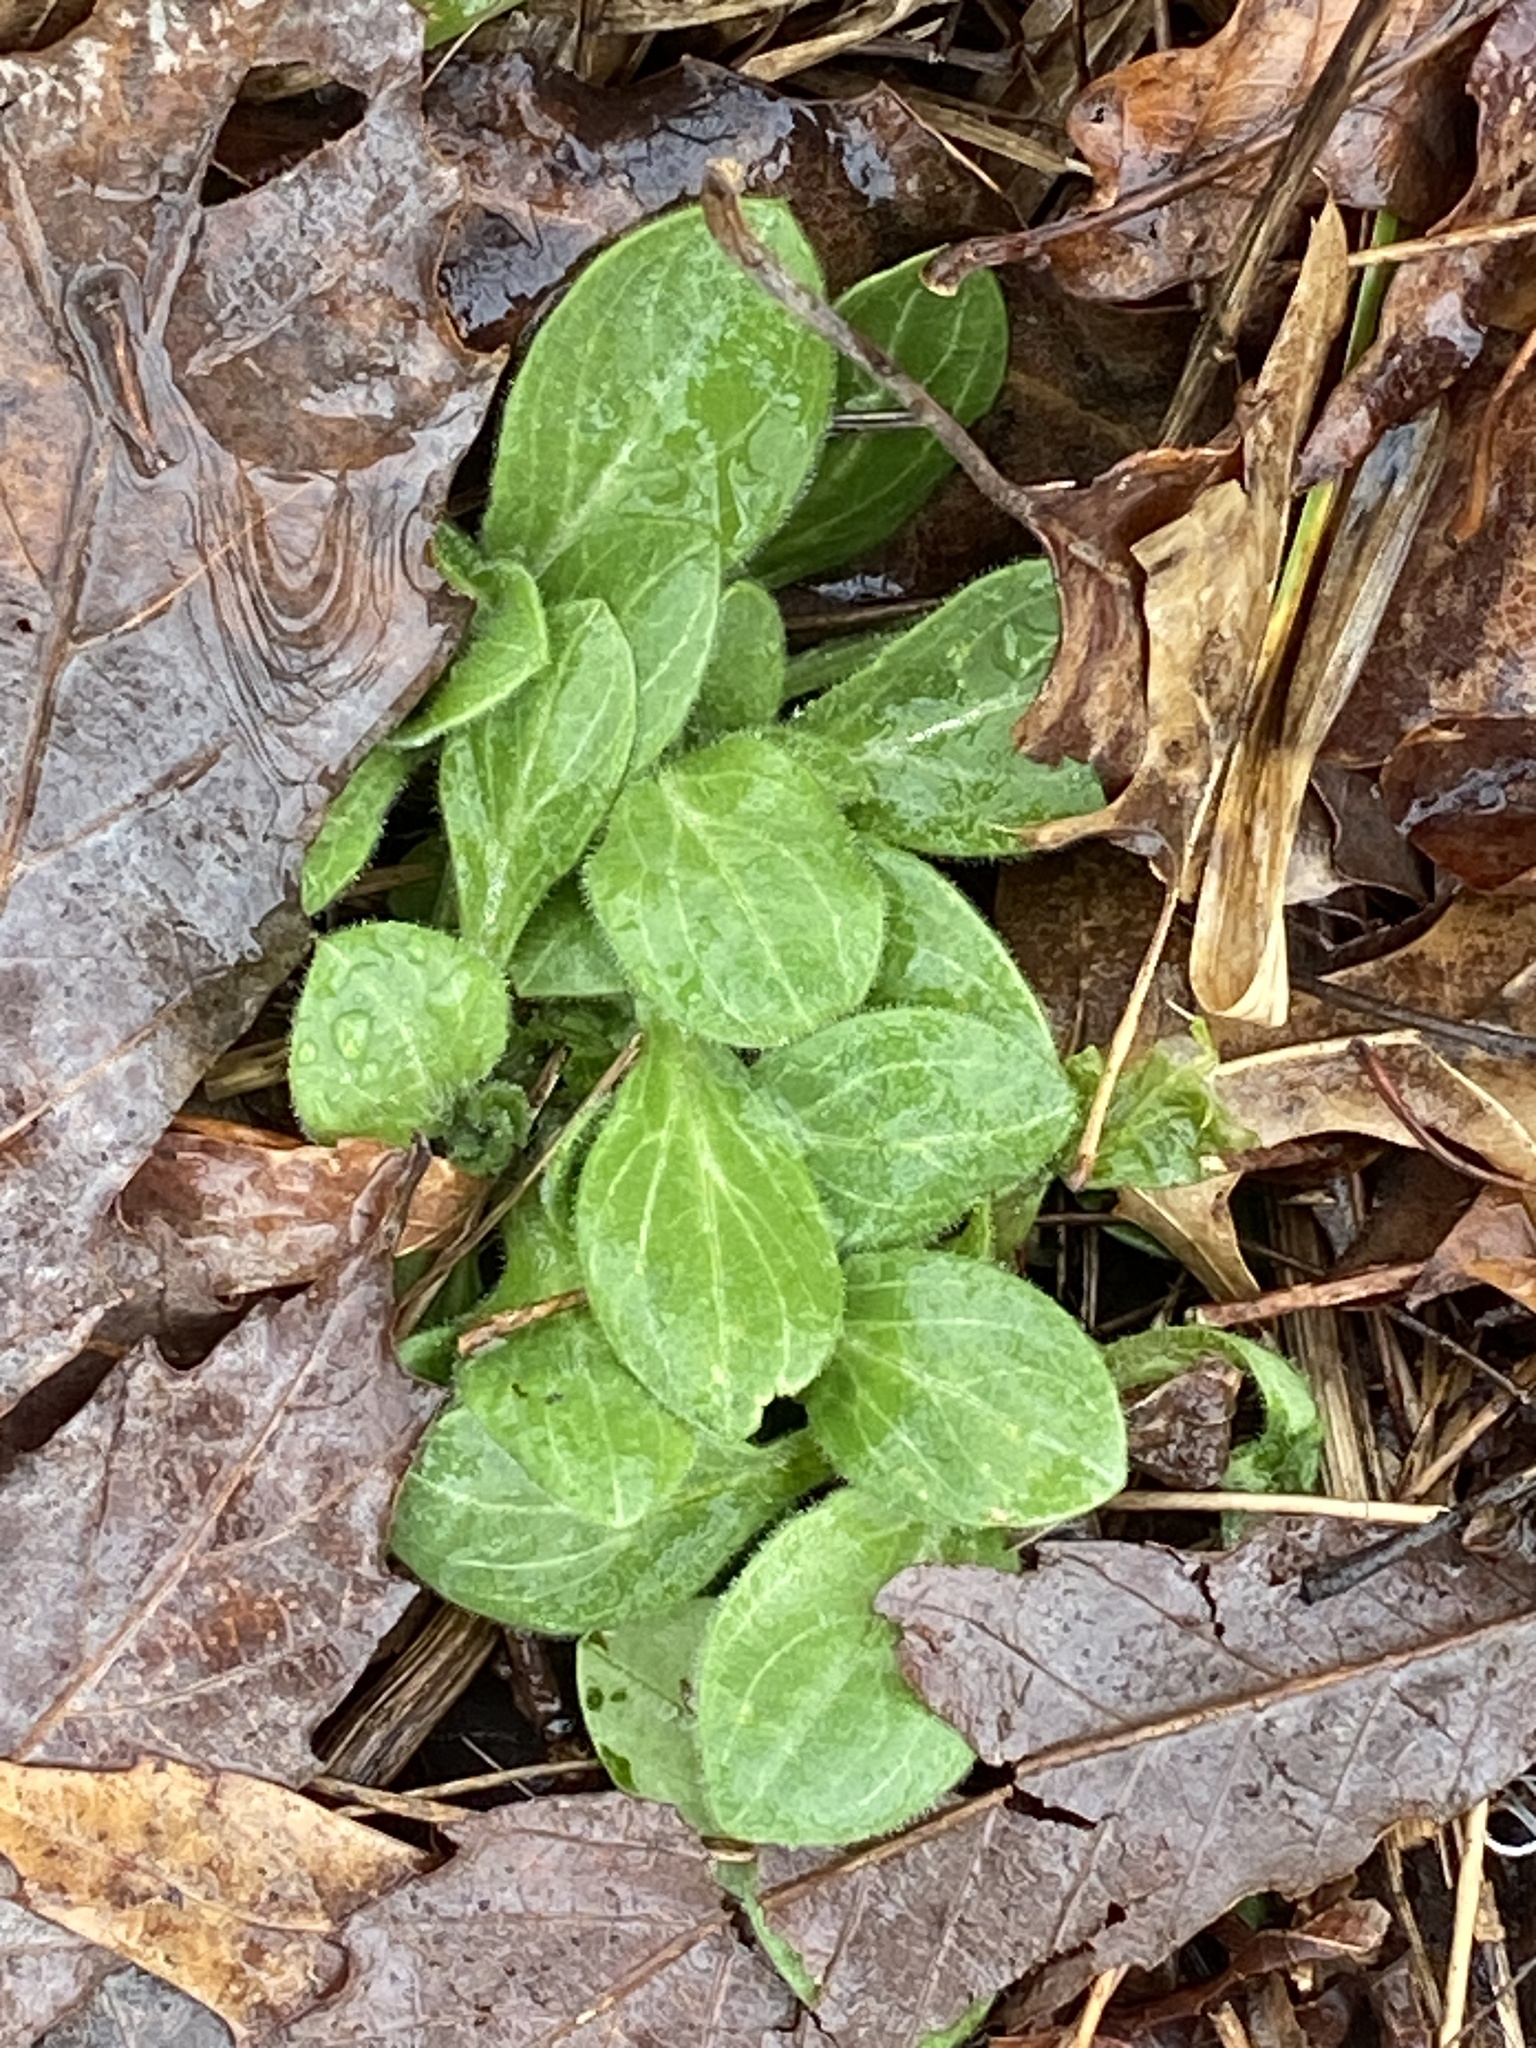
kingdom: Plantae
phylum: Tracheophyta
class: Magnoliopsida
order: Caryophyllales
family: Caryophyllaceae
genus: Silene
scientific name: Silene latifolia
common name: White campion
